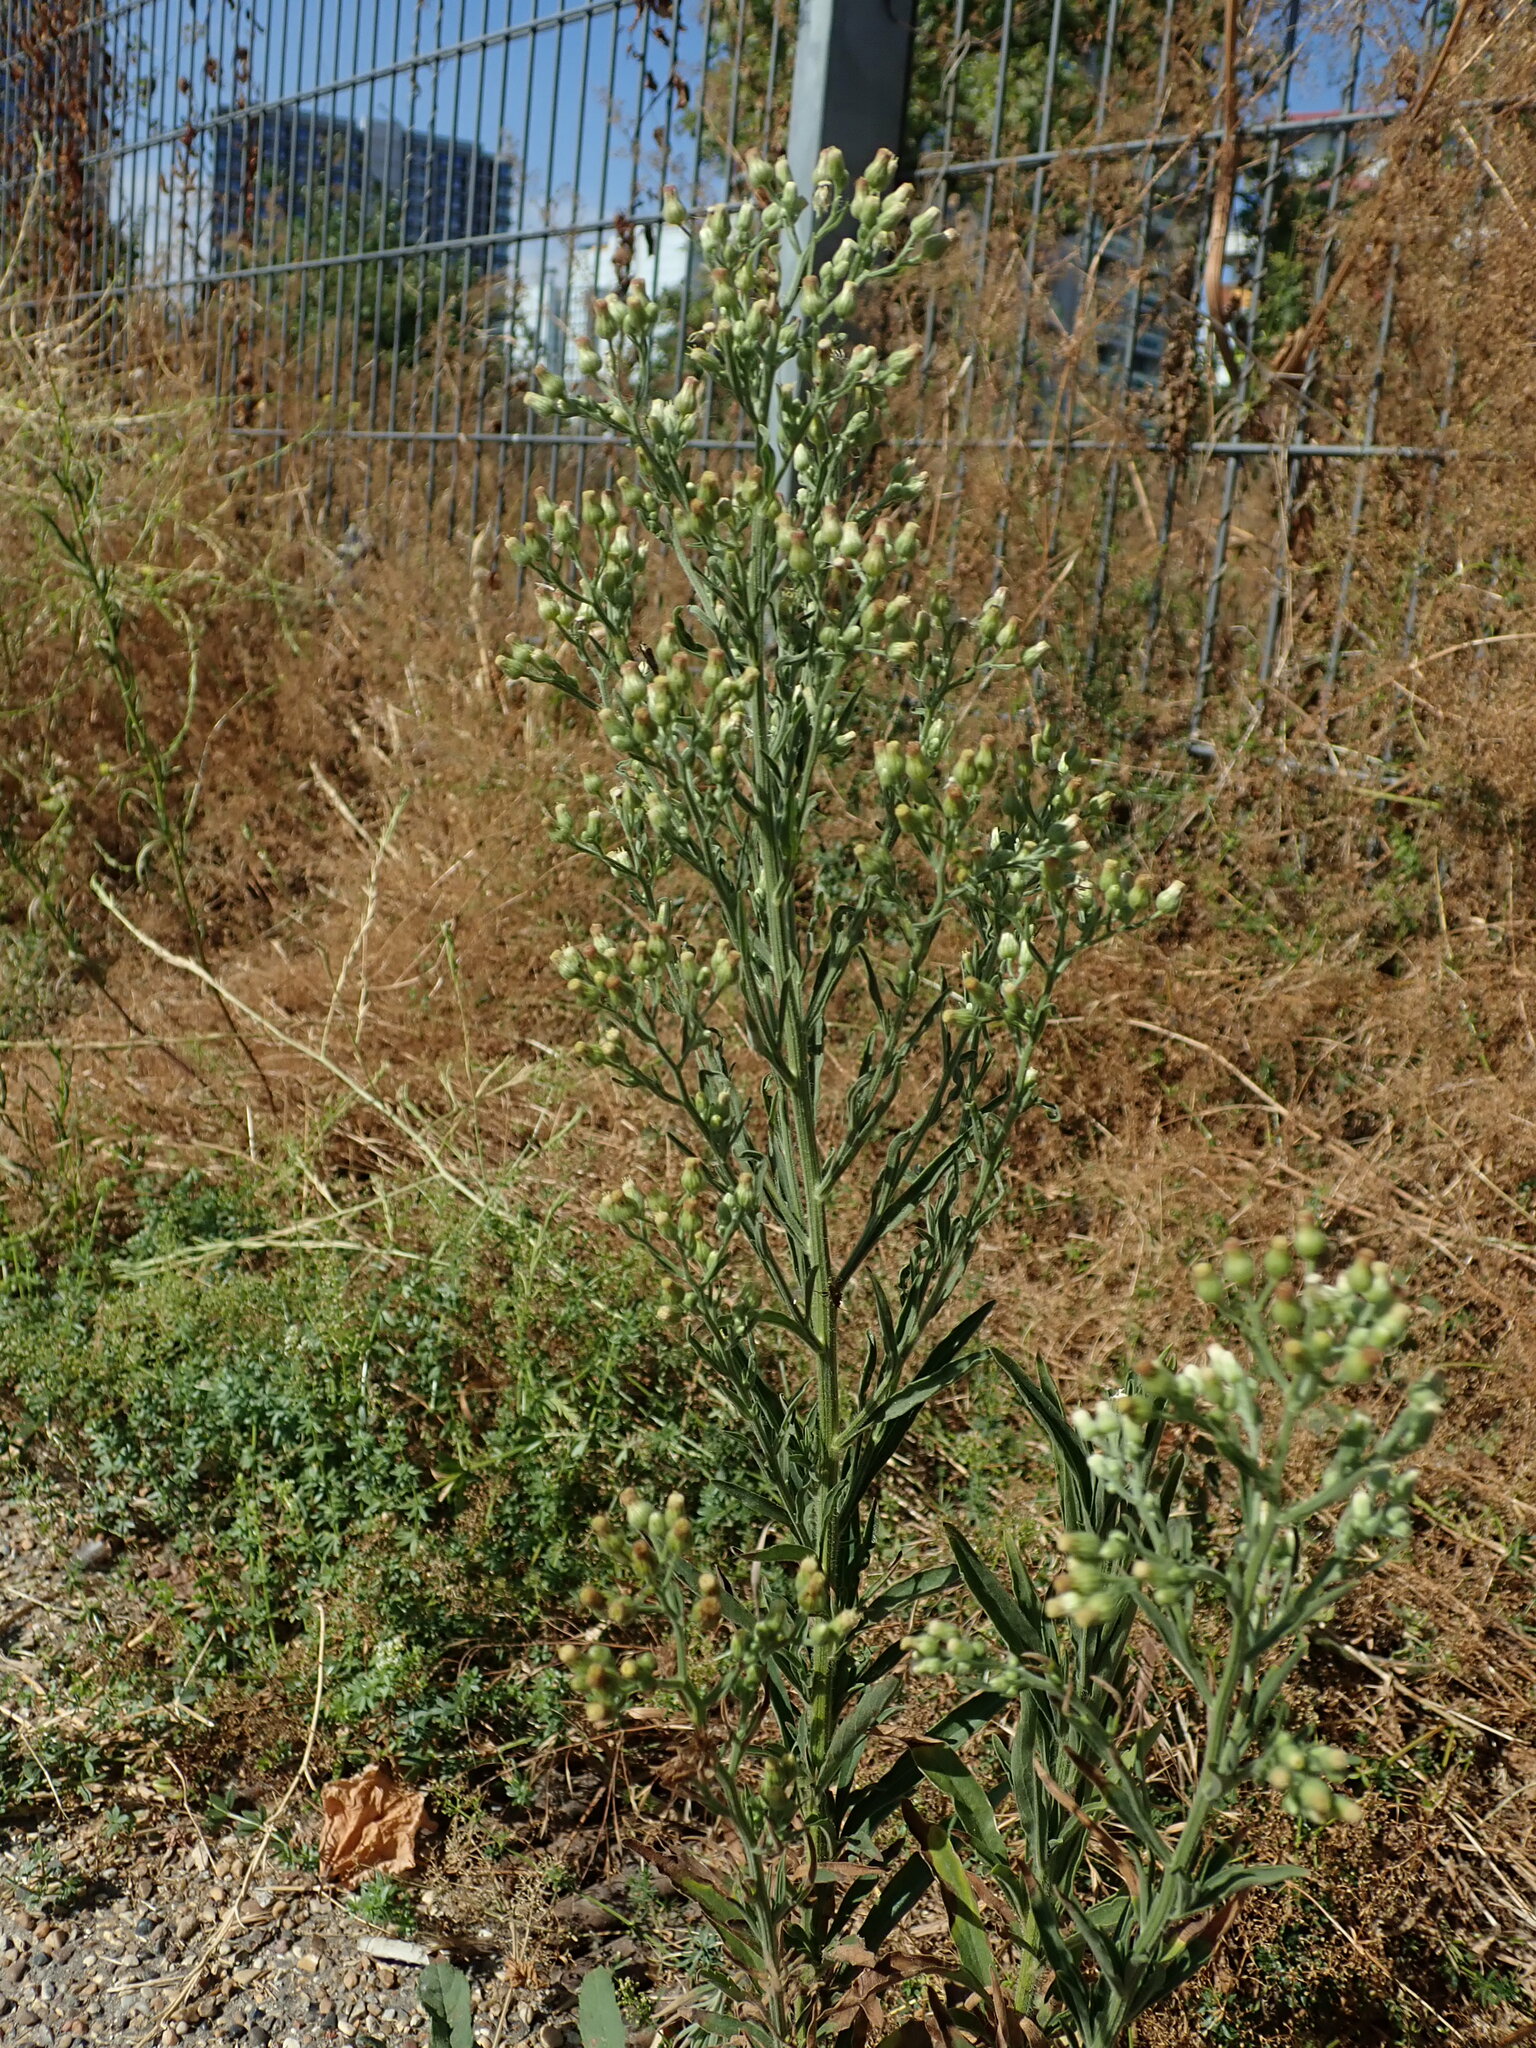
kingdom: Plantae
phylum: Tracheophyta
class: Magnoliopsida
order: Asterales
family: Asteraceae
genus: Erigeron
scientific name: Erigeron sumatrensis
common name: Daisy
